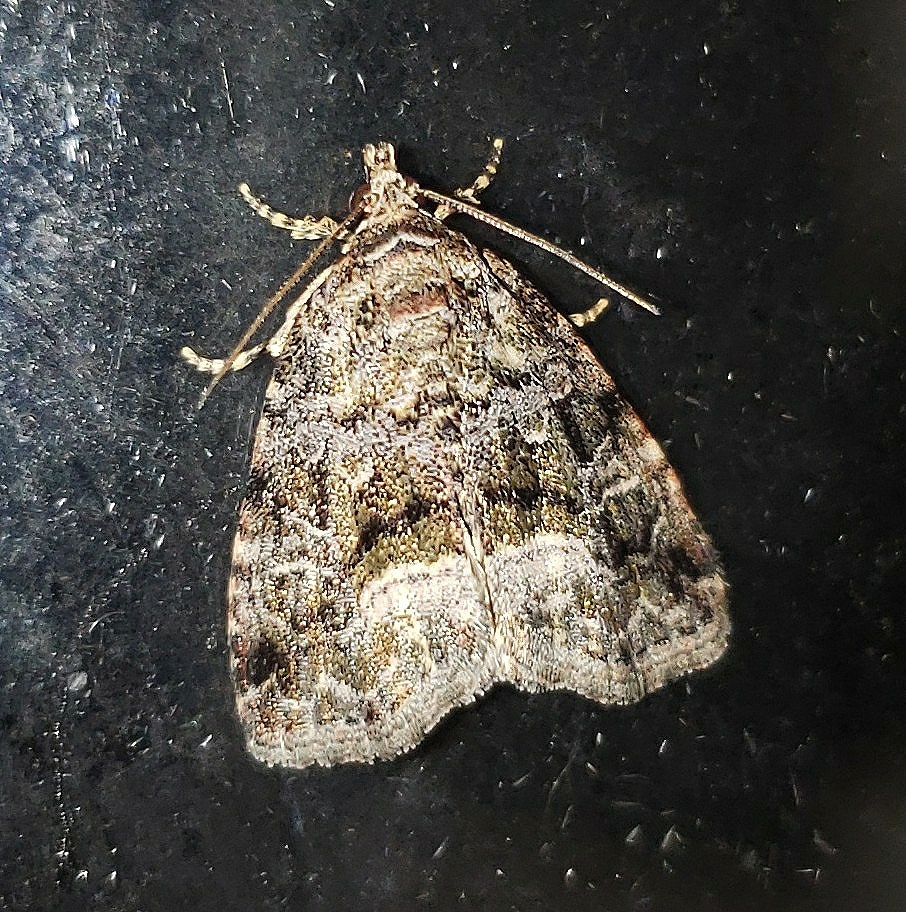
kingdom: Animalia
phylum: Arthropoda
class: Insecta
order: Lepidoptera
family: Noctuidae
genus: Protodeltote
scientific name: Protodeltote muscosula
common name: Large mossy glyph
